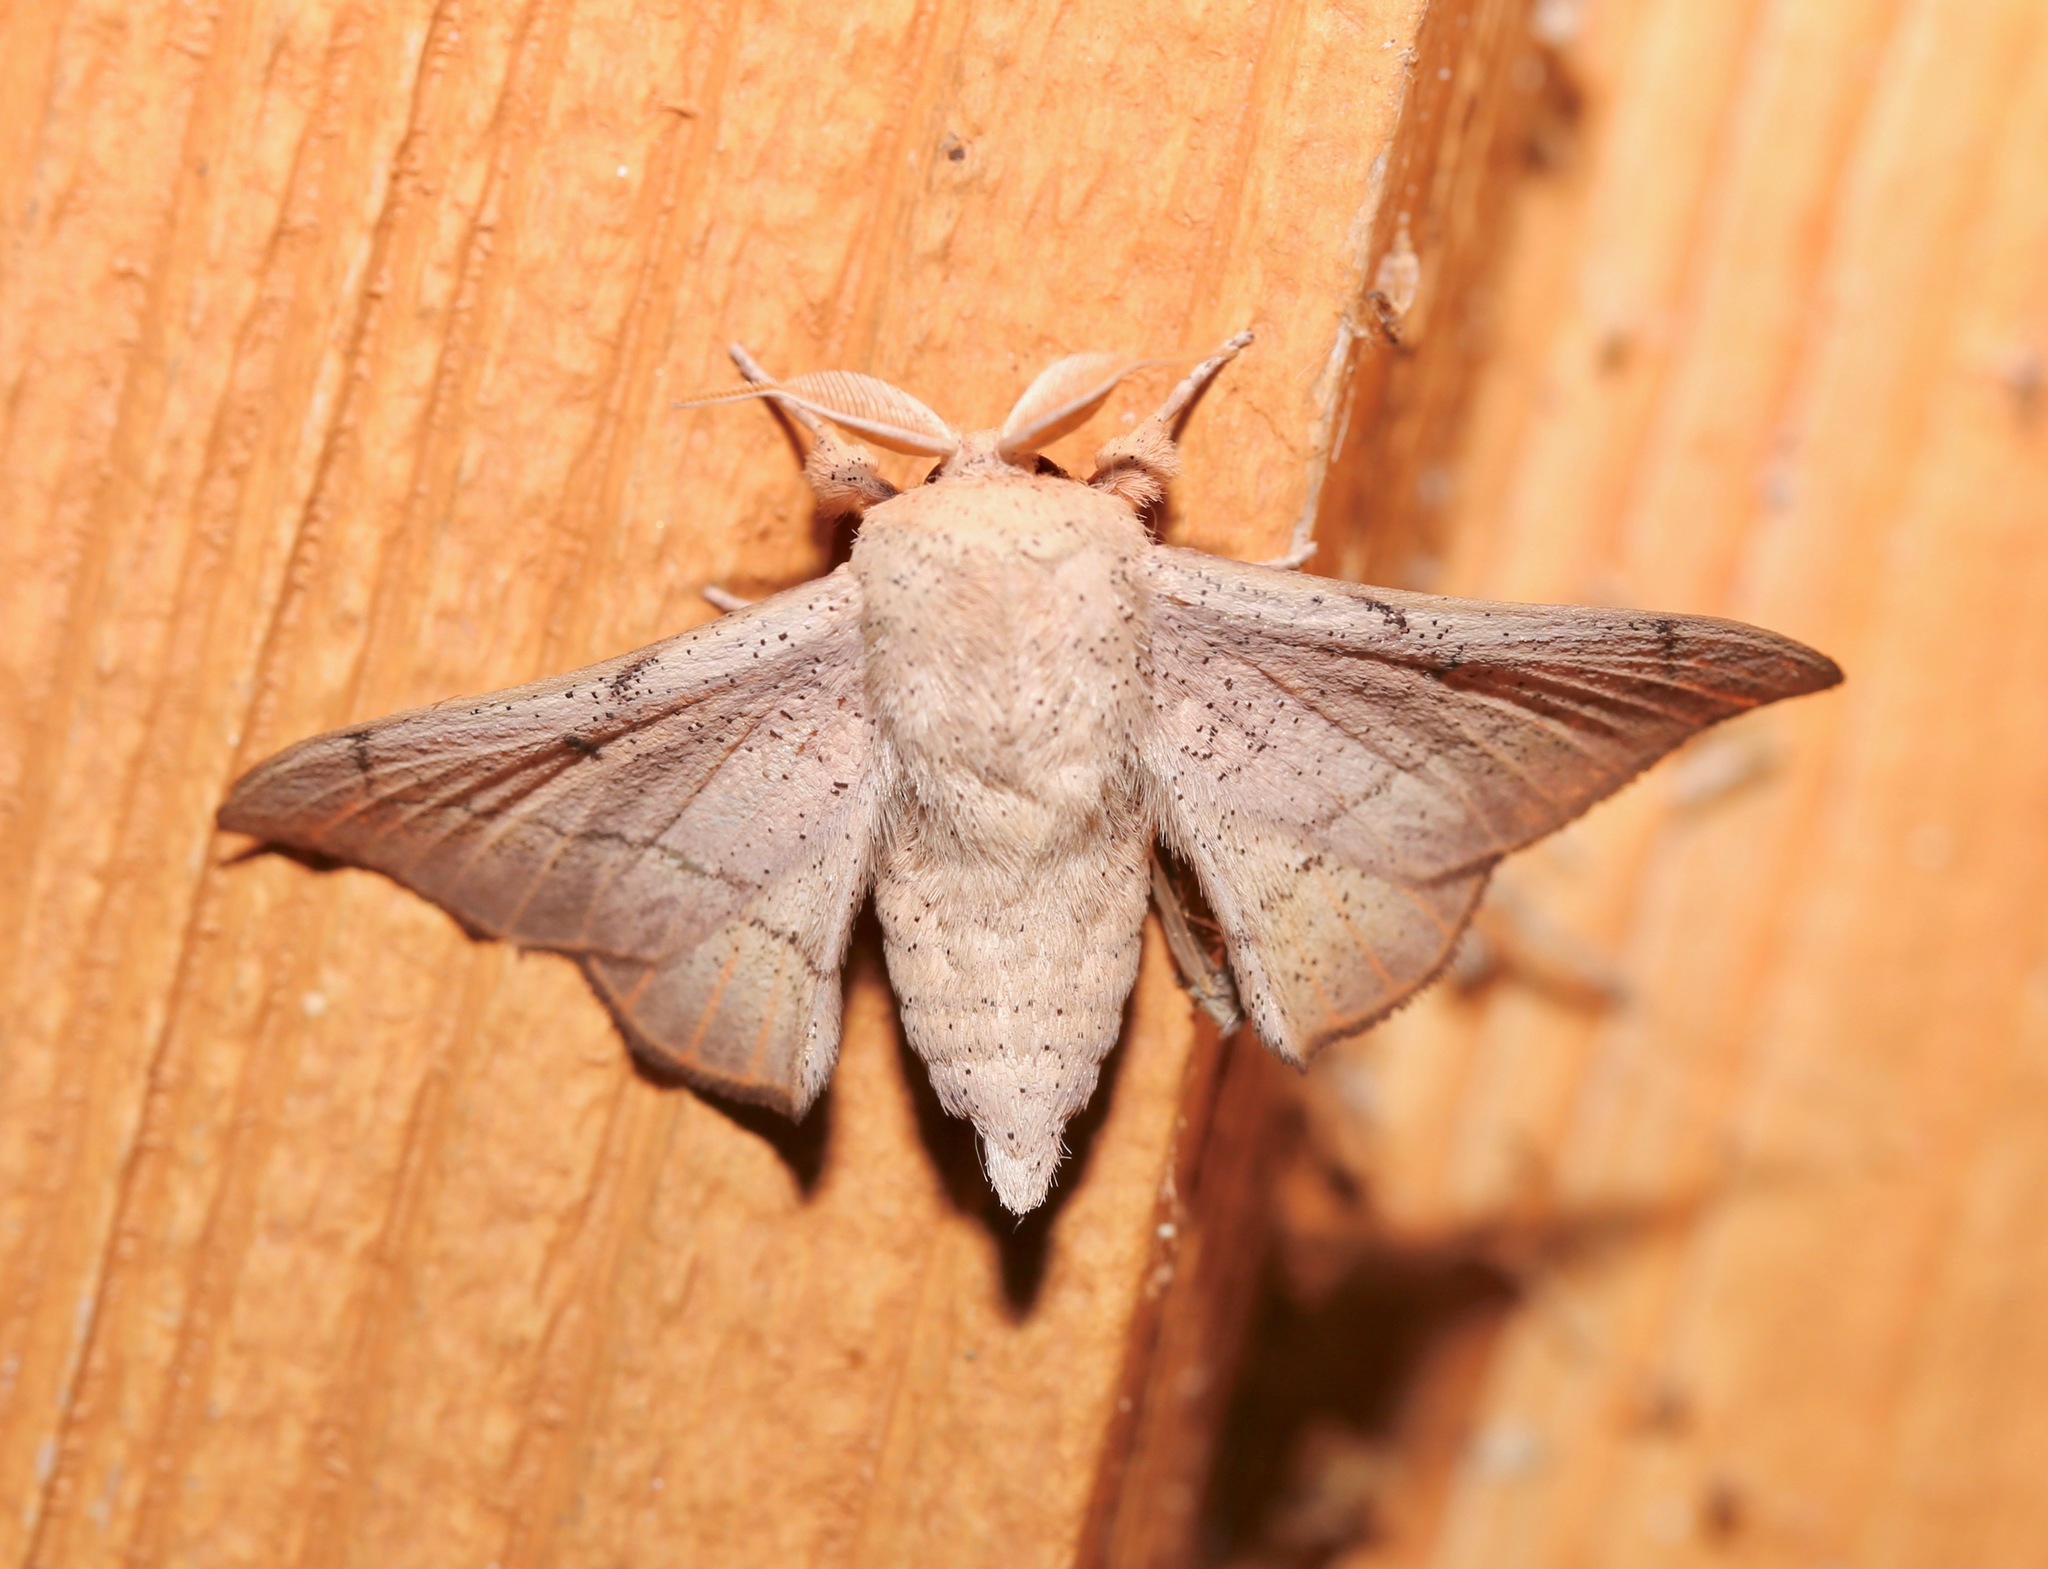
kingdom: Animalia
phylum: Arthropoda
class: Insecta
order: Lepidoptera
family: Mimallonidae
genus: Cicinnus
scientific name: Cicinnus melsheimeri
